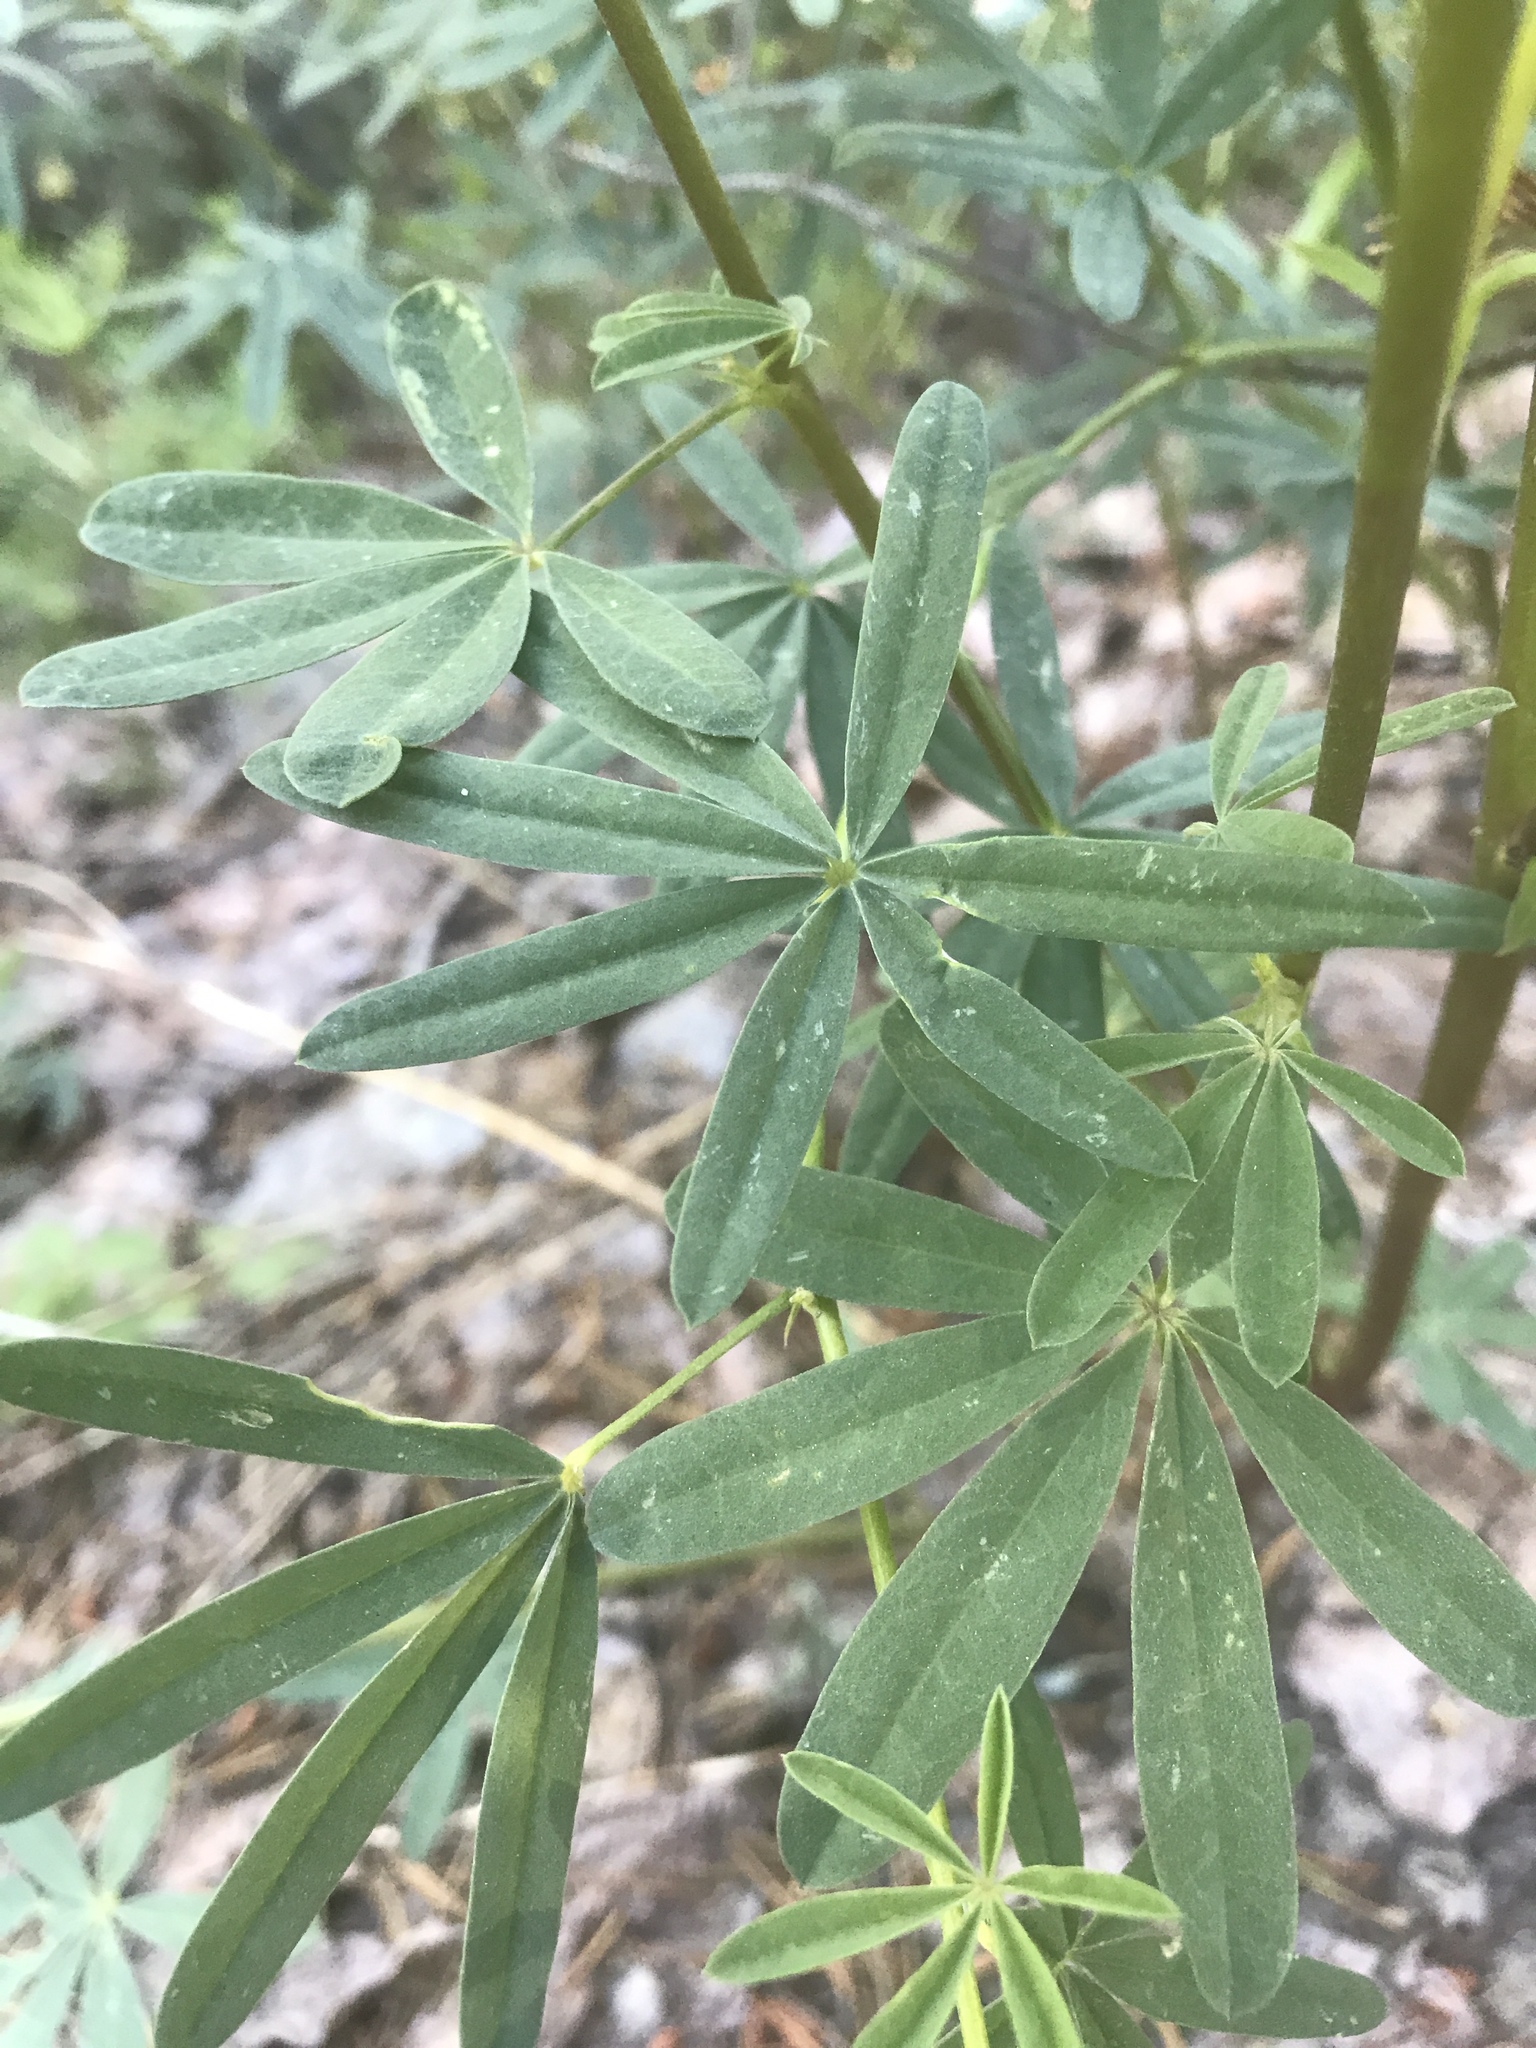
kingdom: Plantae
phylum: Tracheophyta
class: Magnoliopsida
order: Fabales
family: Fabaceae
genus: Lupinus
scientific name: Lupinus angustiflorus
